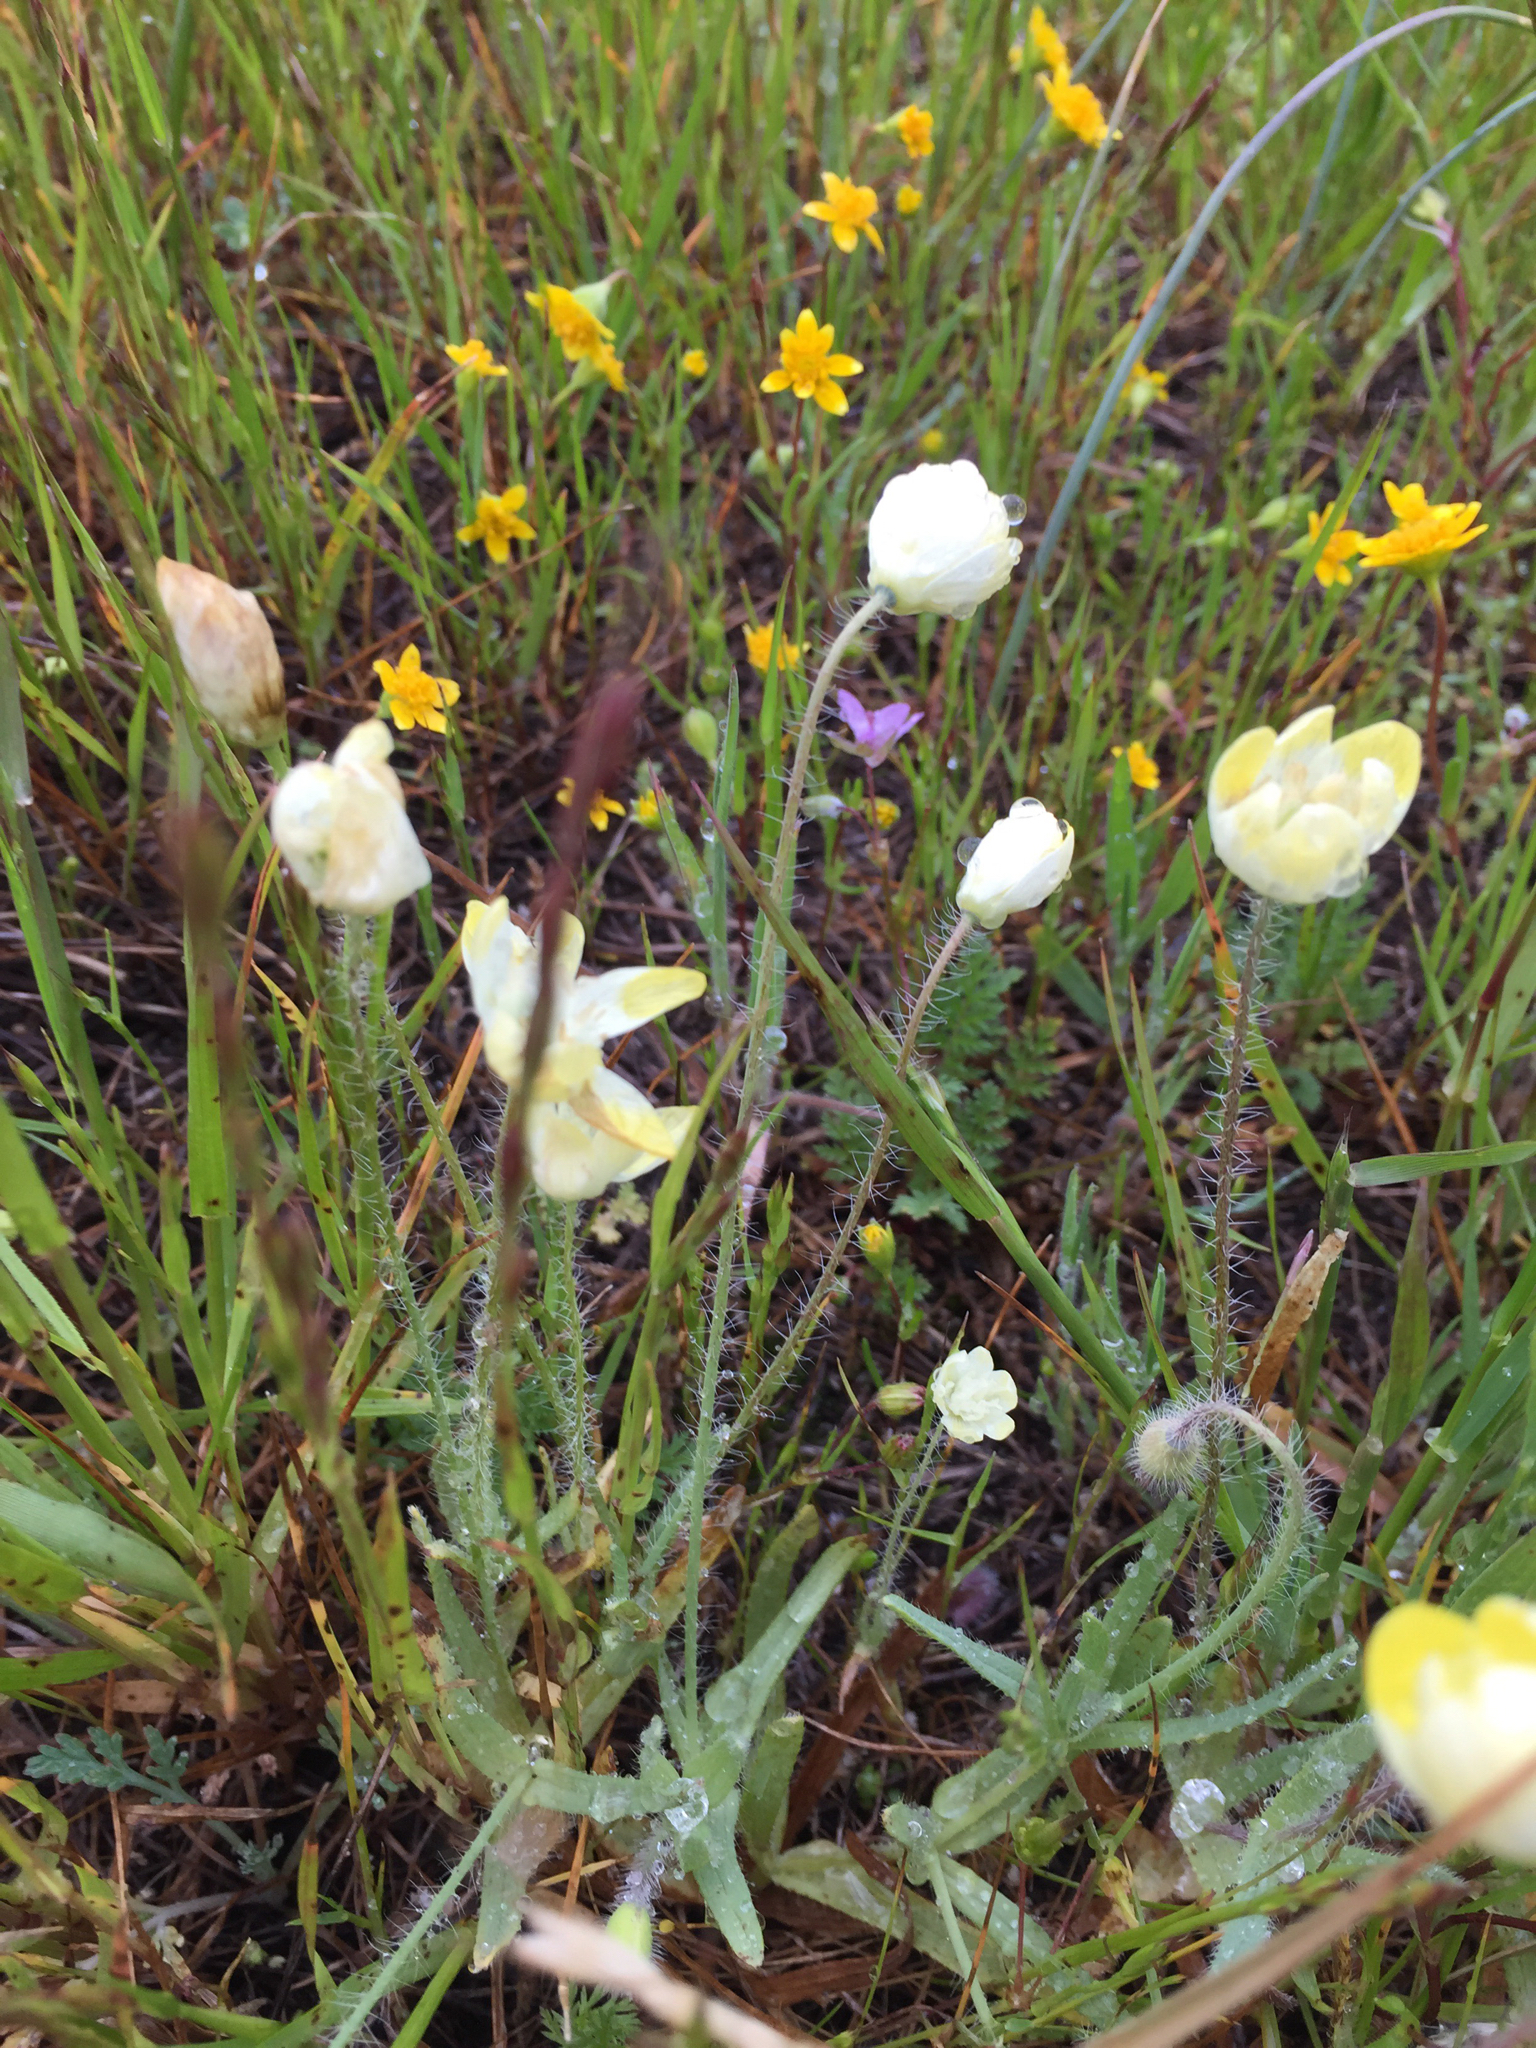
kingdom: Plantae
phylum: Tracheophyta
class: Magnoliopsida
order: Ranunculales
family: Papaveraceae
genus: Platystemon
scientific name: Platystemon californicus
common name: Cream-cups
